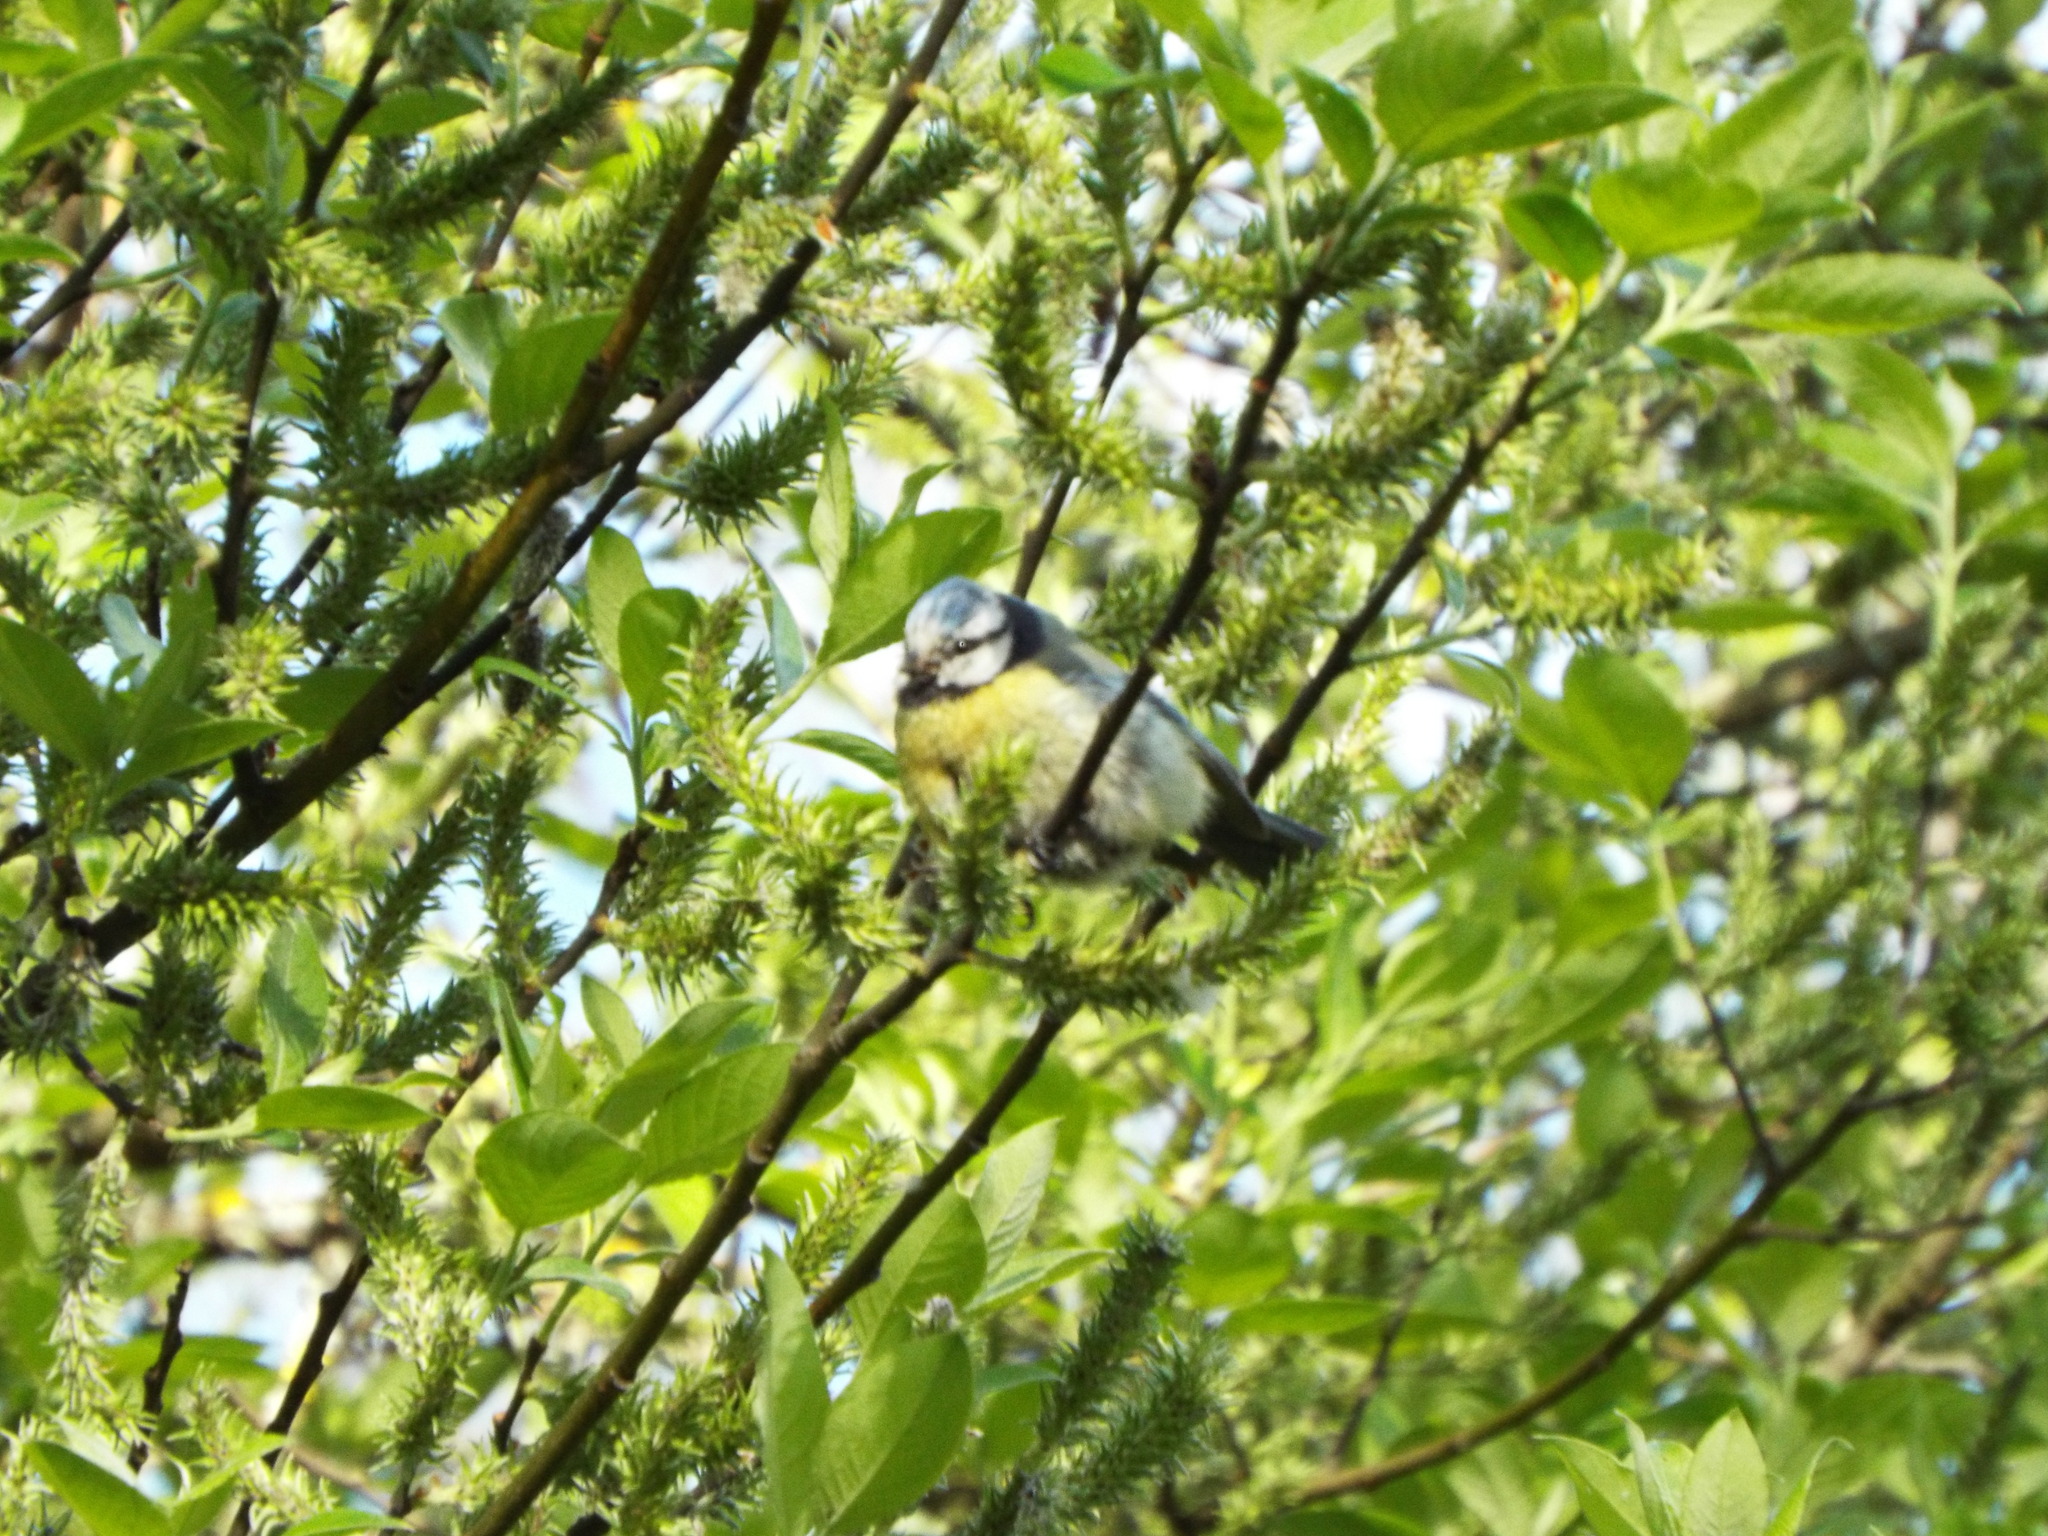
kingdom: Animalia
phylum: Chordata
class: Aves
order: Passeriformes
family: Paridae
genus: Cyanistes
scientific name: Cyanistes caeruleus
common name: Eurasian blue tit
